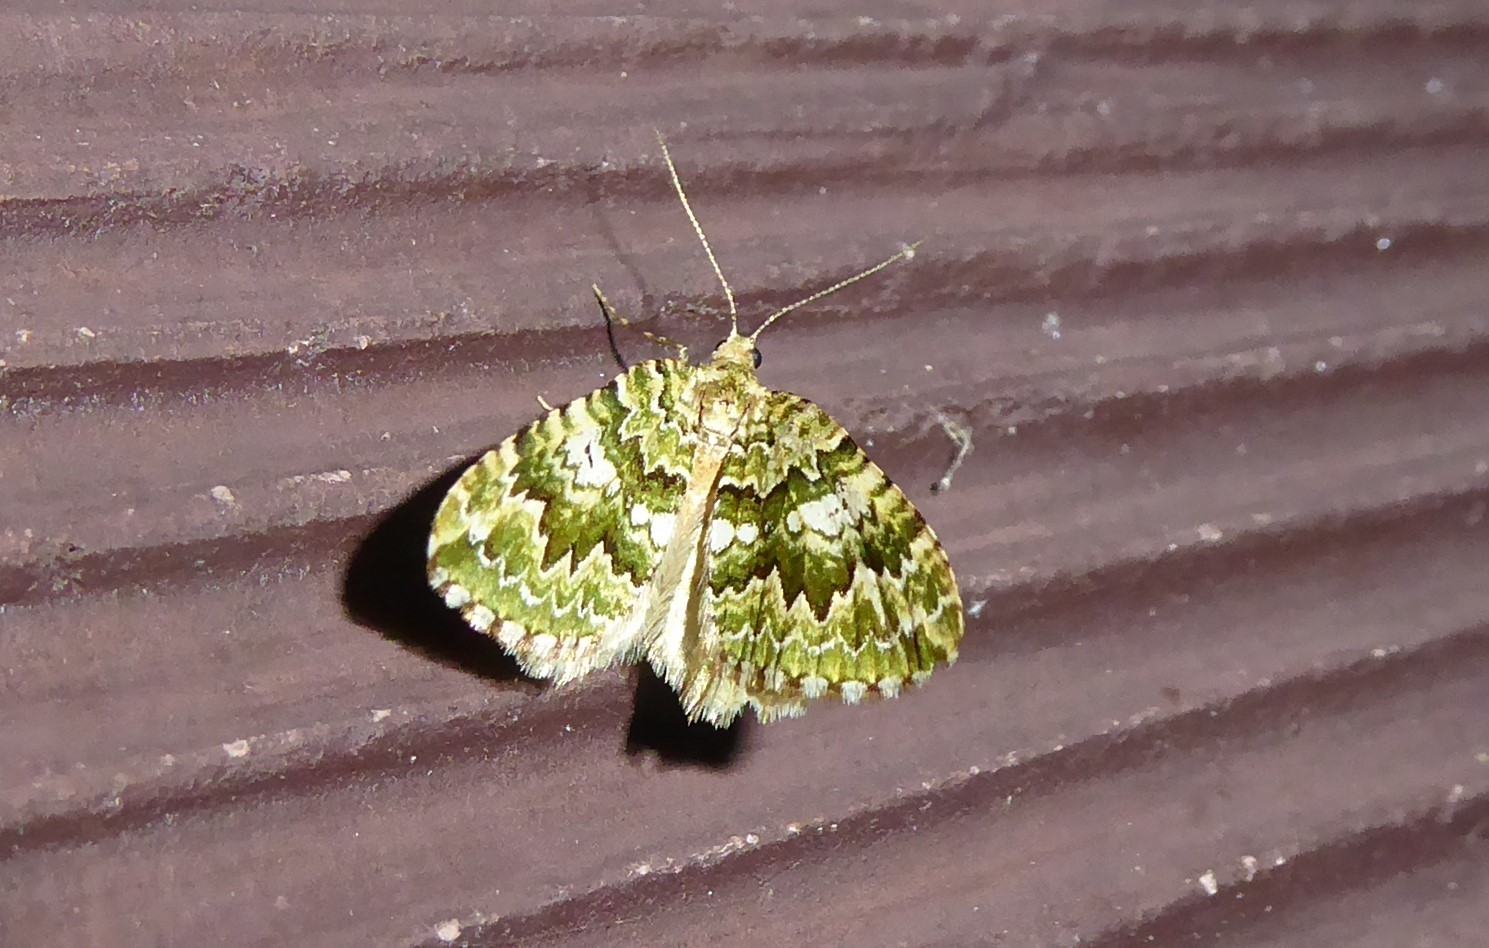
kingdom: Animalia
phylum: Arthropoda
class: Insecta
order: Lepidoptera
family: Geometridae
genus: Asaphodes
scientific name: Asaphodes beata
